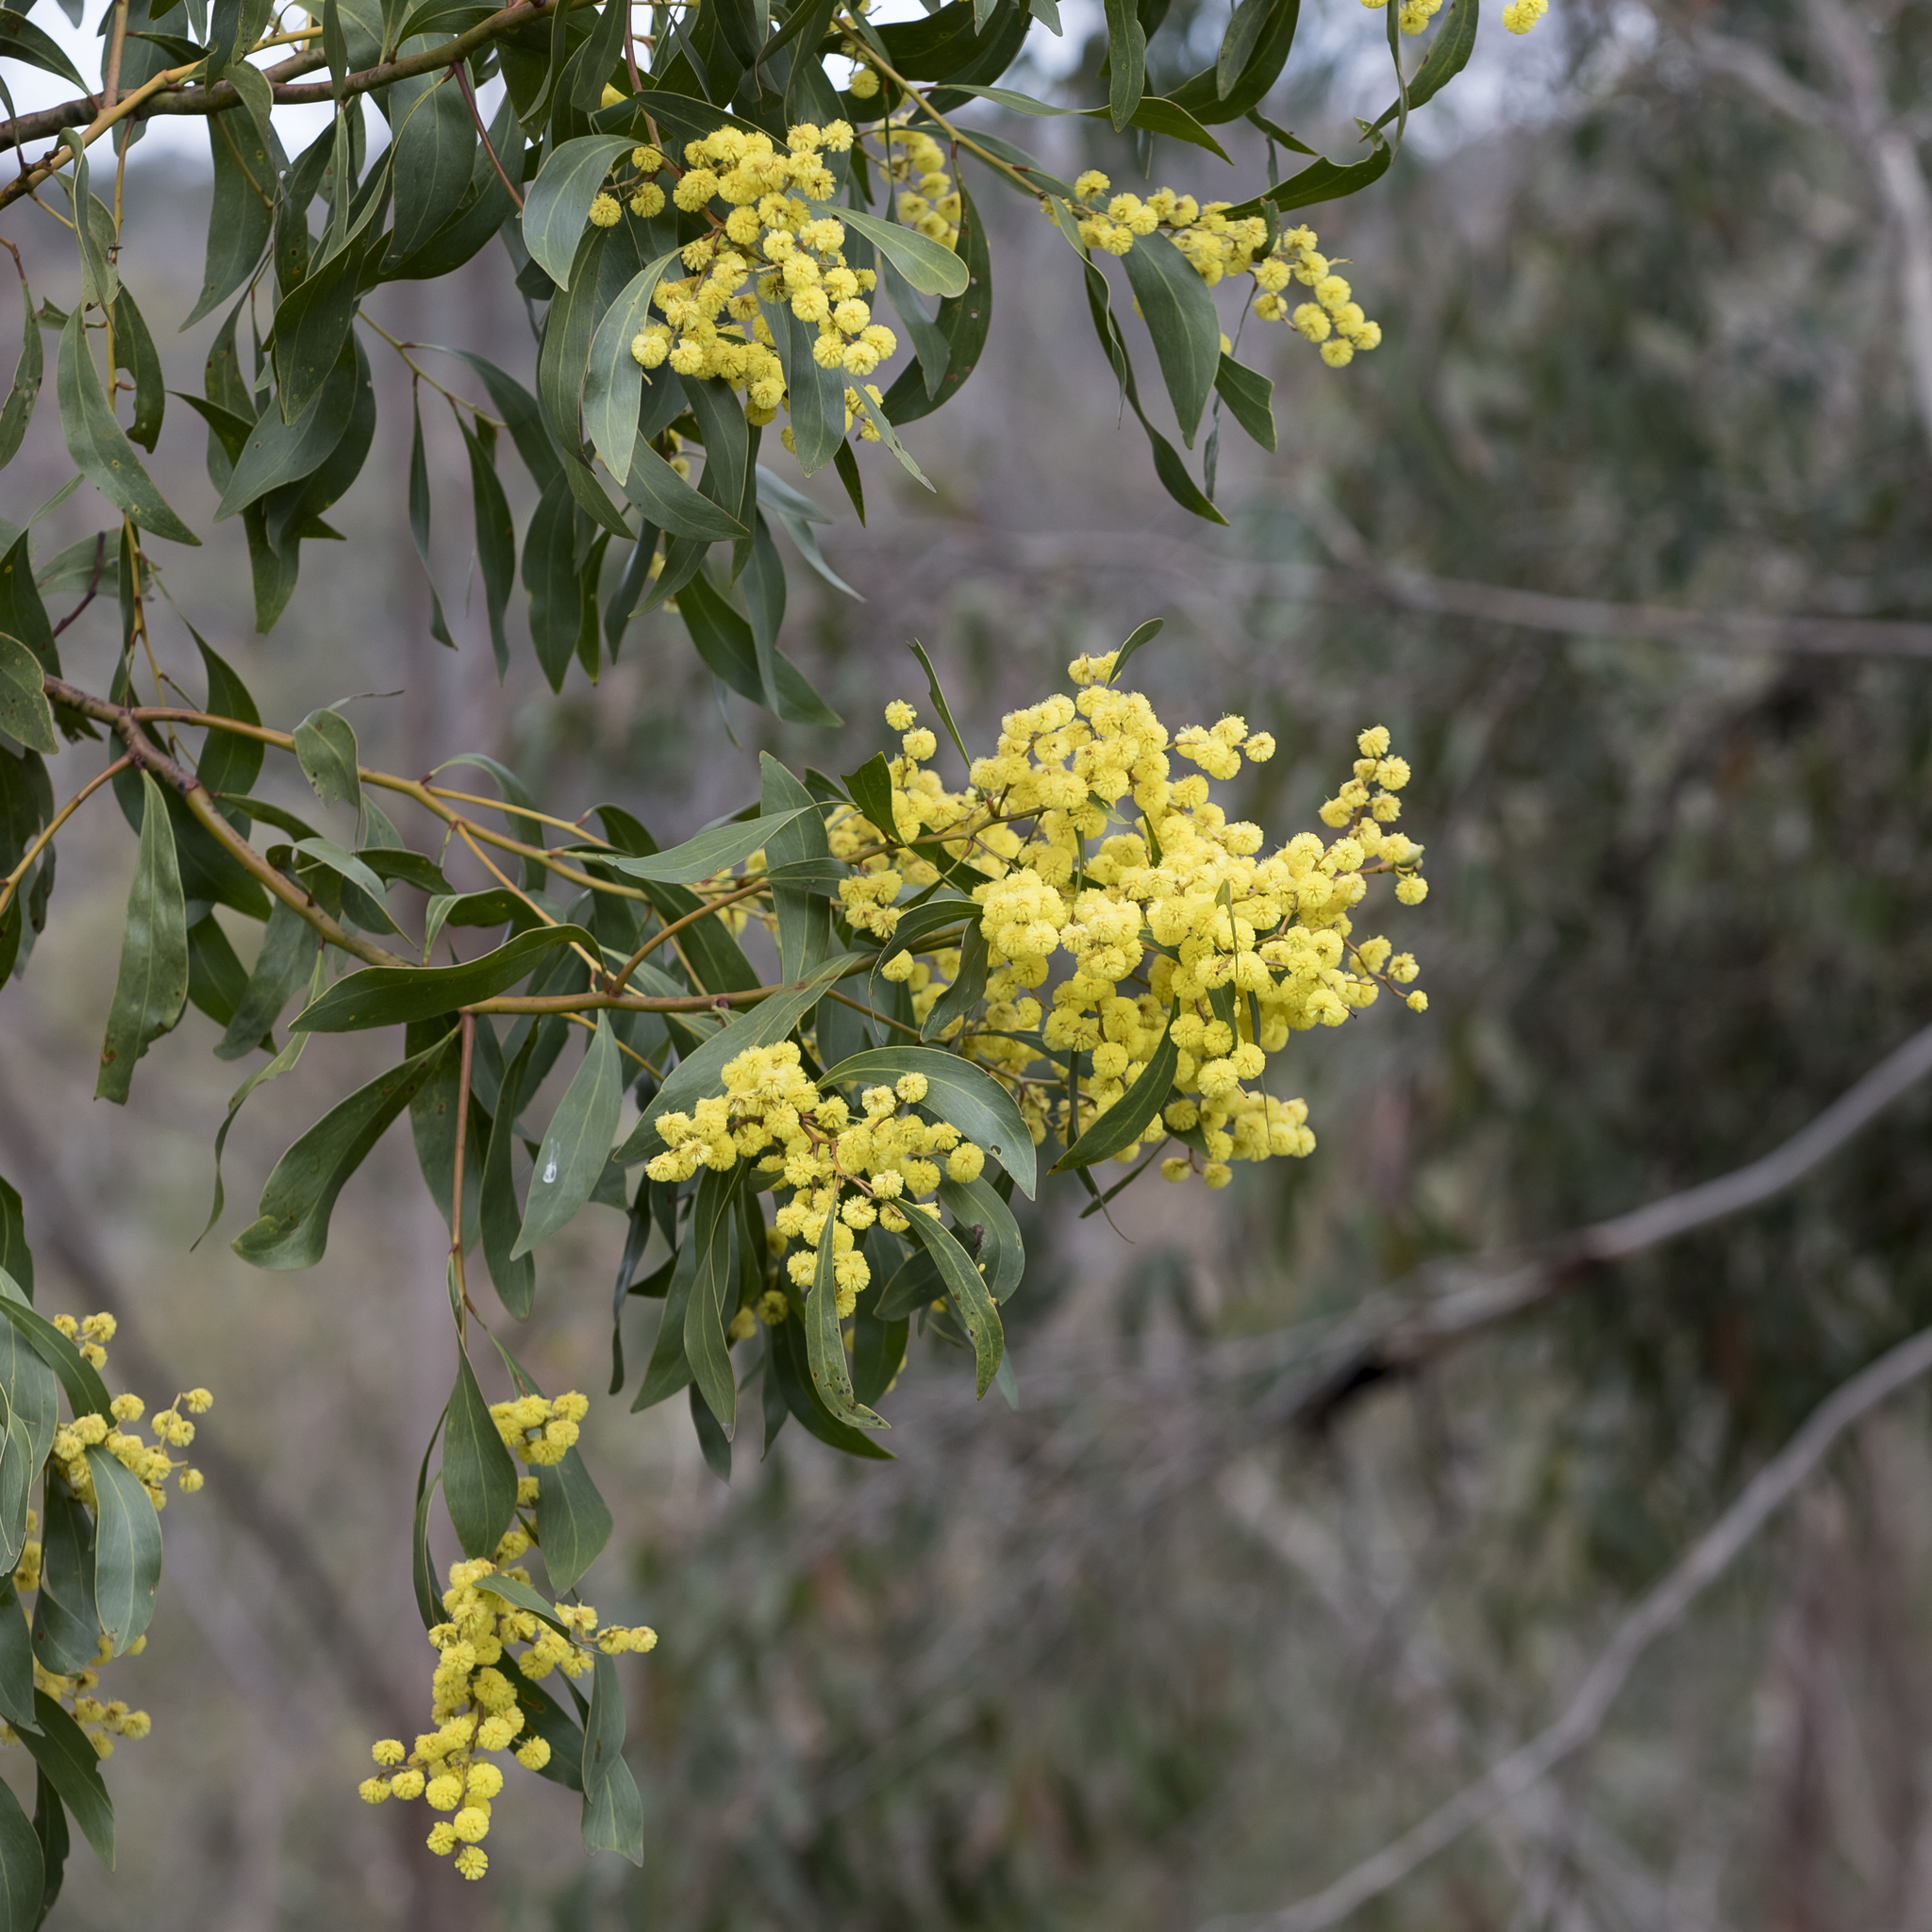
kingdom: Plantae
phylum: Tracheophyta
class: Magnoliopsida
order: Fabales
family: Fabaceae
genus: Acacia
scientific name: Acacia pycnantha
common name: Golden wattle
